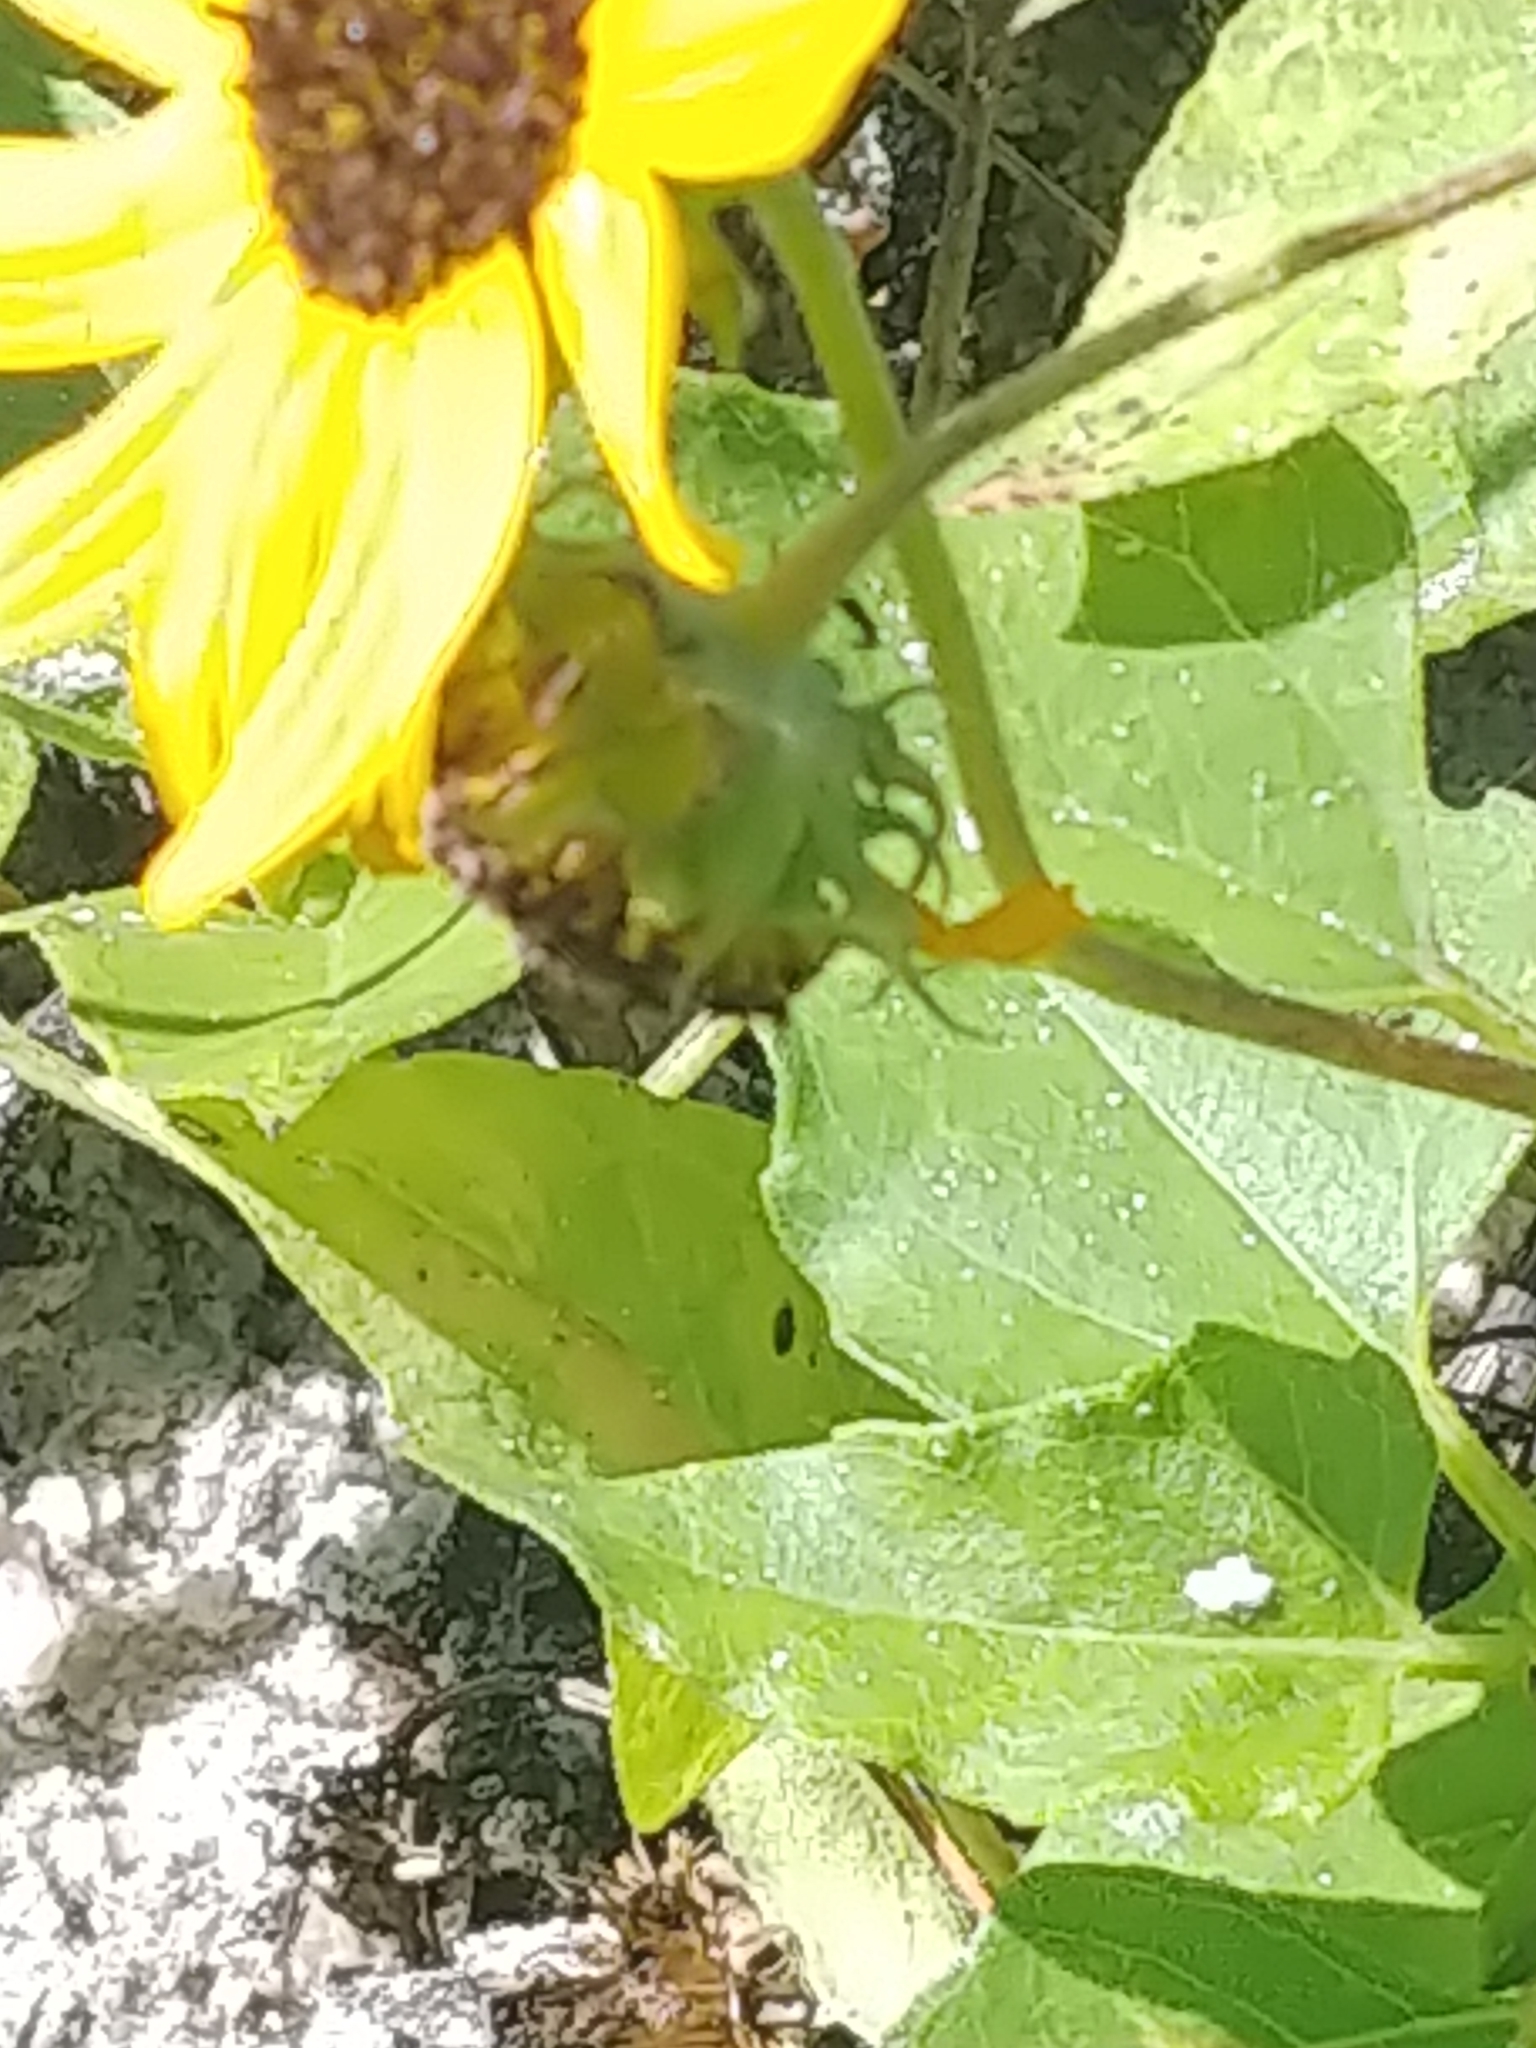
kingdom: Plantae
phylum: Tracheophyta
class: Magnoliopsida
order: Asterales
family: Asteraceae
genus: Helianthus
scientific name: Helianthus debilis
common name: Weak sunflower
